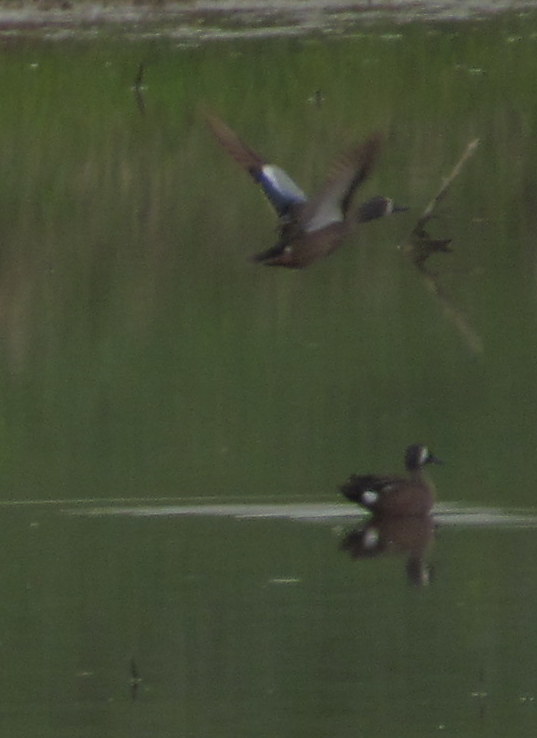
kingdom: Animalia
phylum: Chordata
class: Aves
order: Anseriformes
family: Anatidae
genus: Spatula
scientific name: Spatula discors
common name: Blue-winged teal
